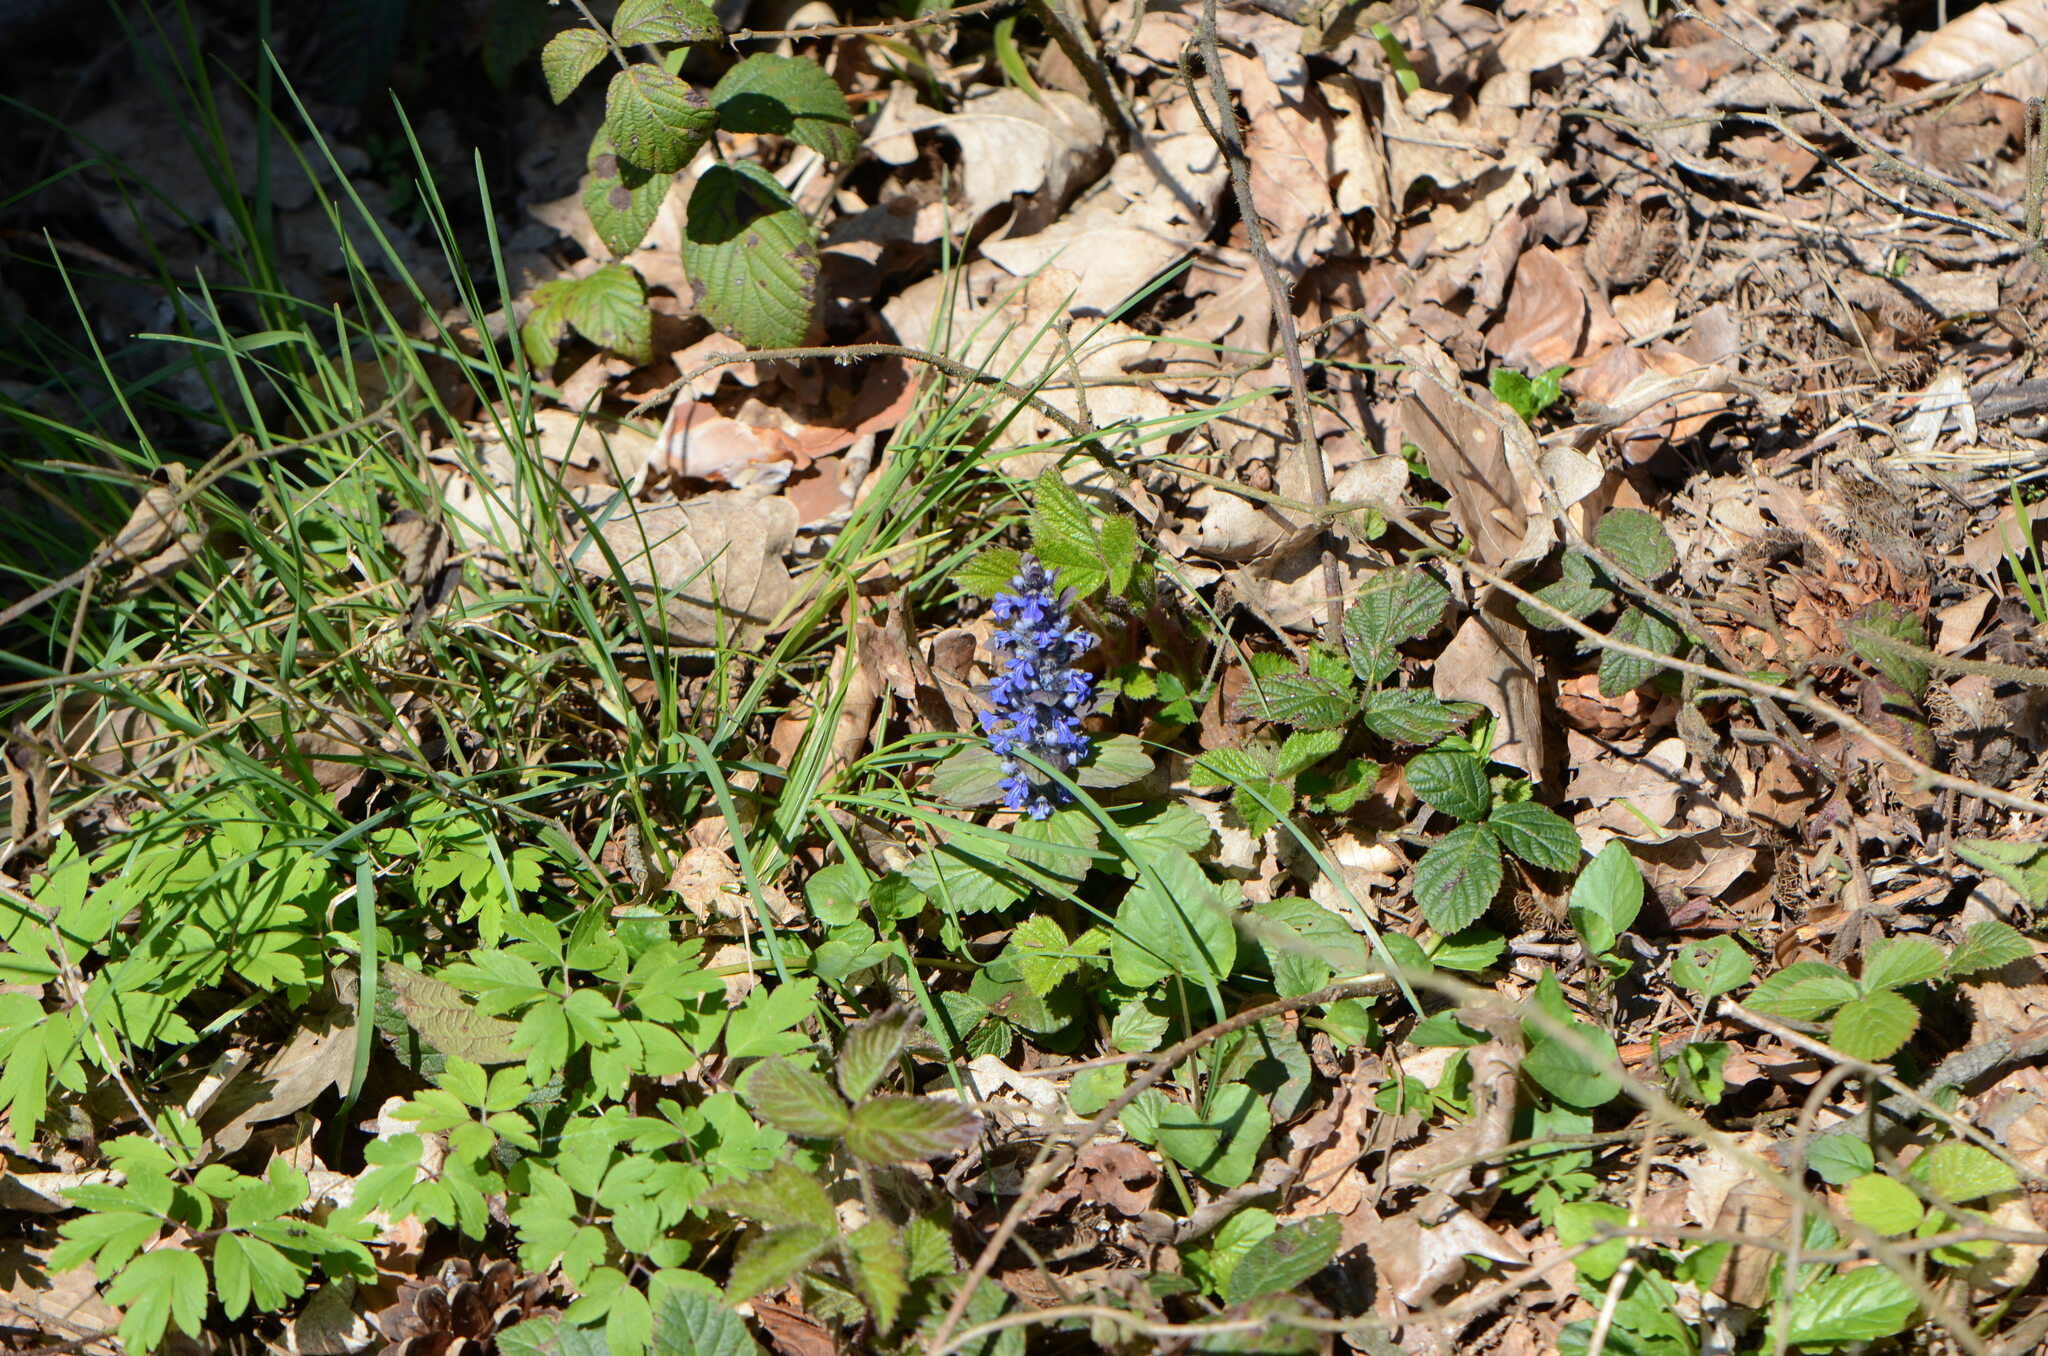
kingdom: Plantae
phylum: Tracheophyta
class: Magnoliopsida
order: Lamiales
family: Lamiaceae
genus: Ajuga
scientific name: Ajuga reptans
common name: Bugle
